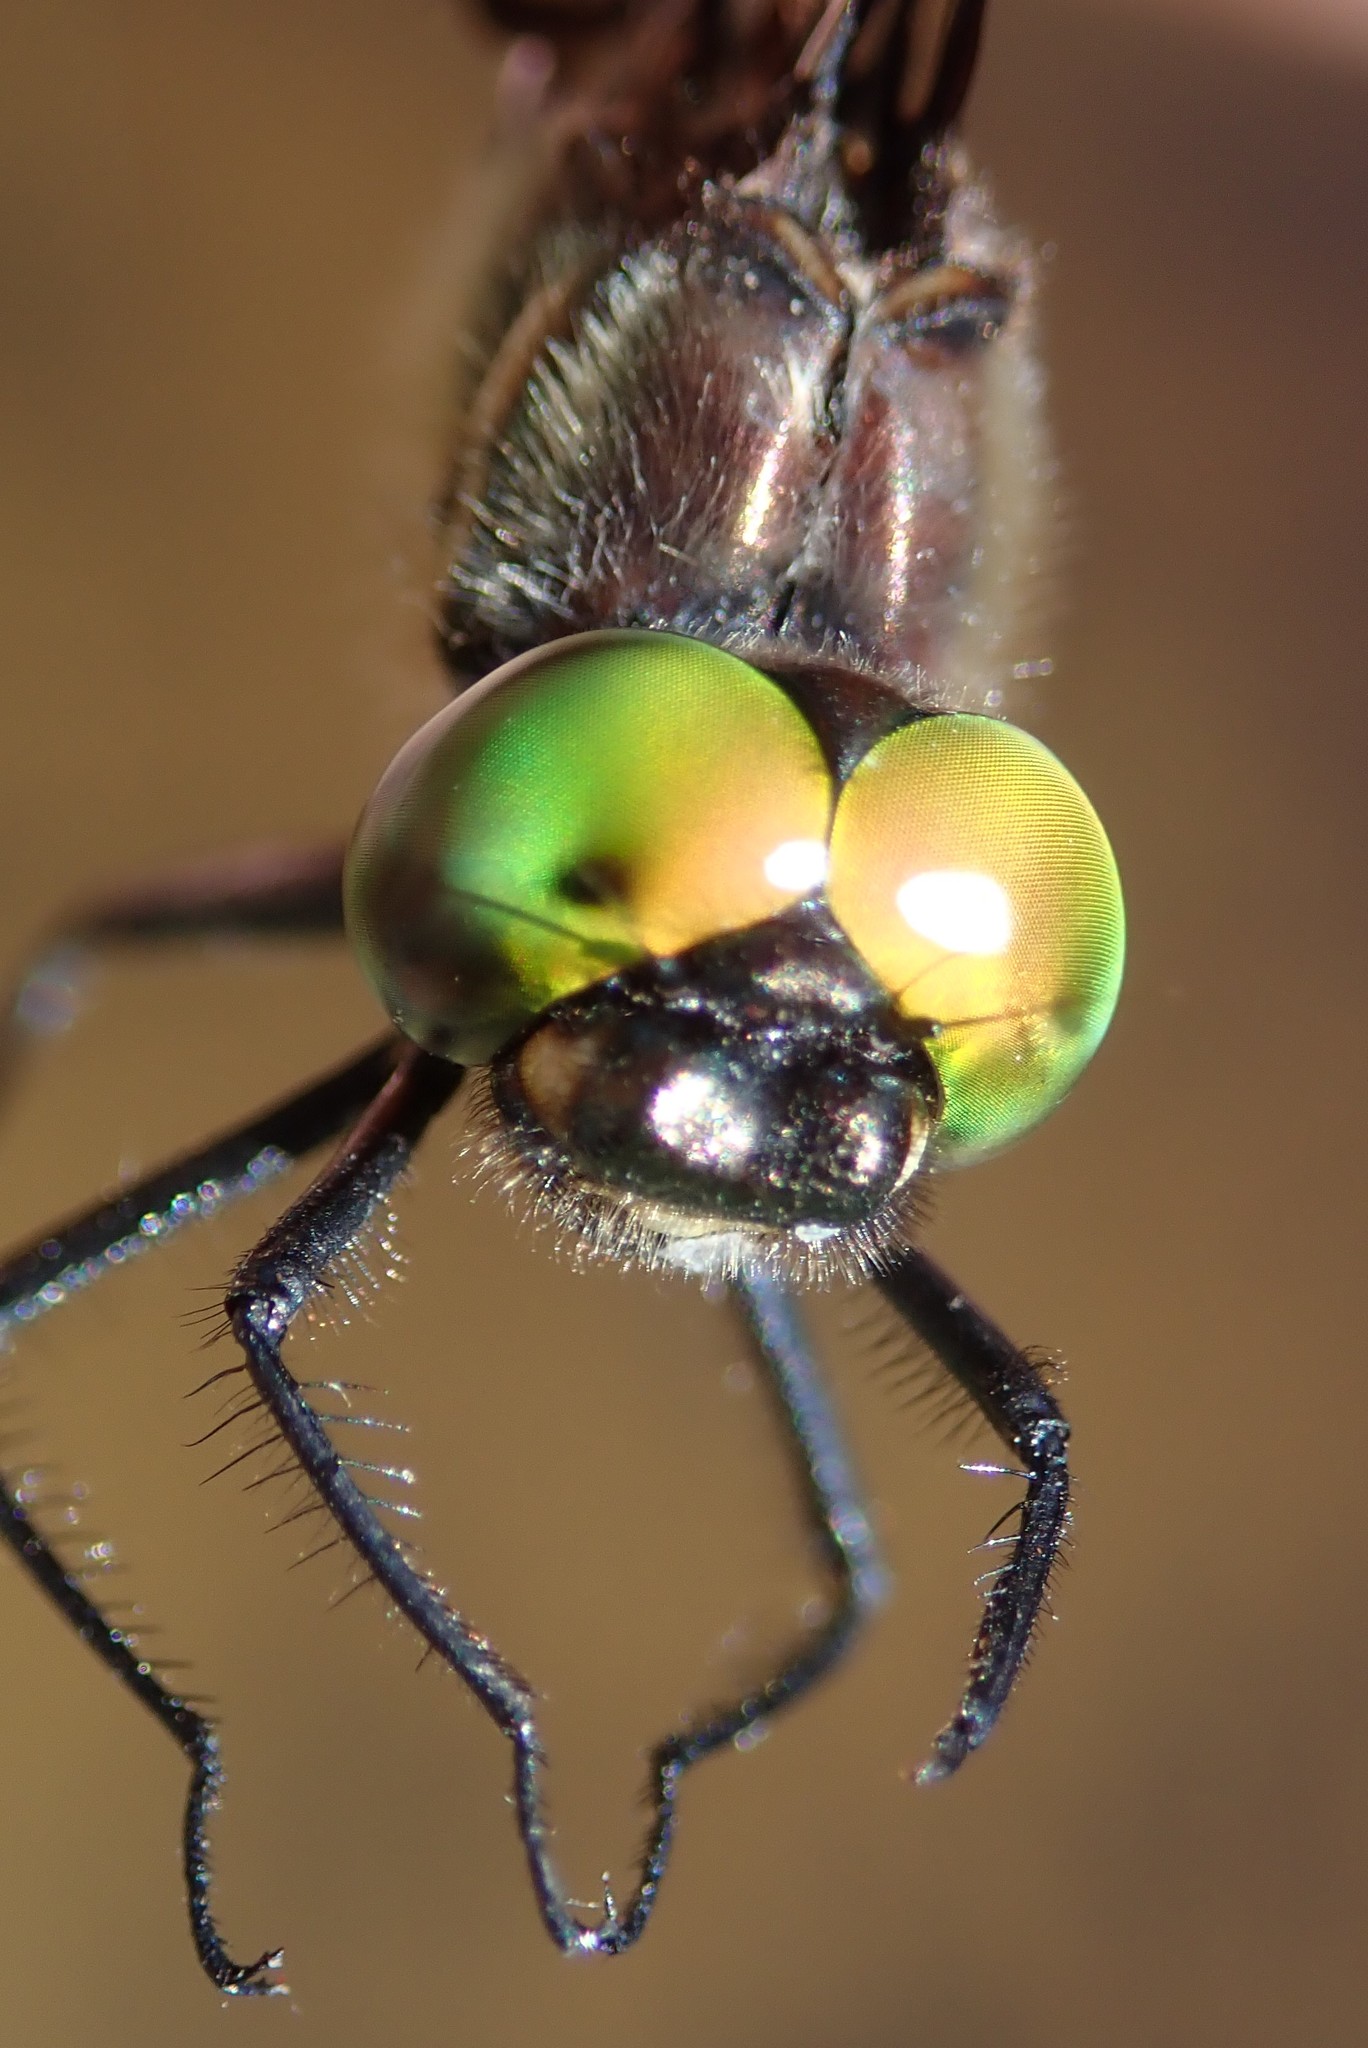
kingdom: Animalia
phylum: Arthropoda
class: Insecta
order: Odonata
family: Corduliidae
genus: Somatochlora
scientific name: Somatochlora elongata
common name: Ski-tipped emerald
